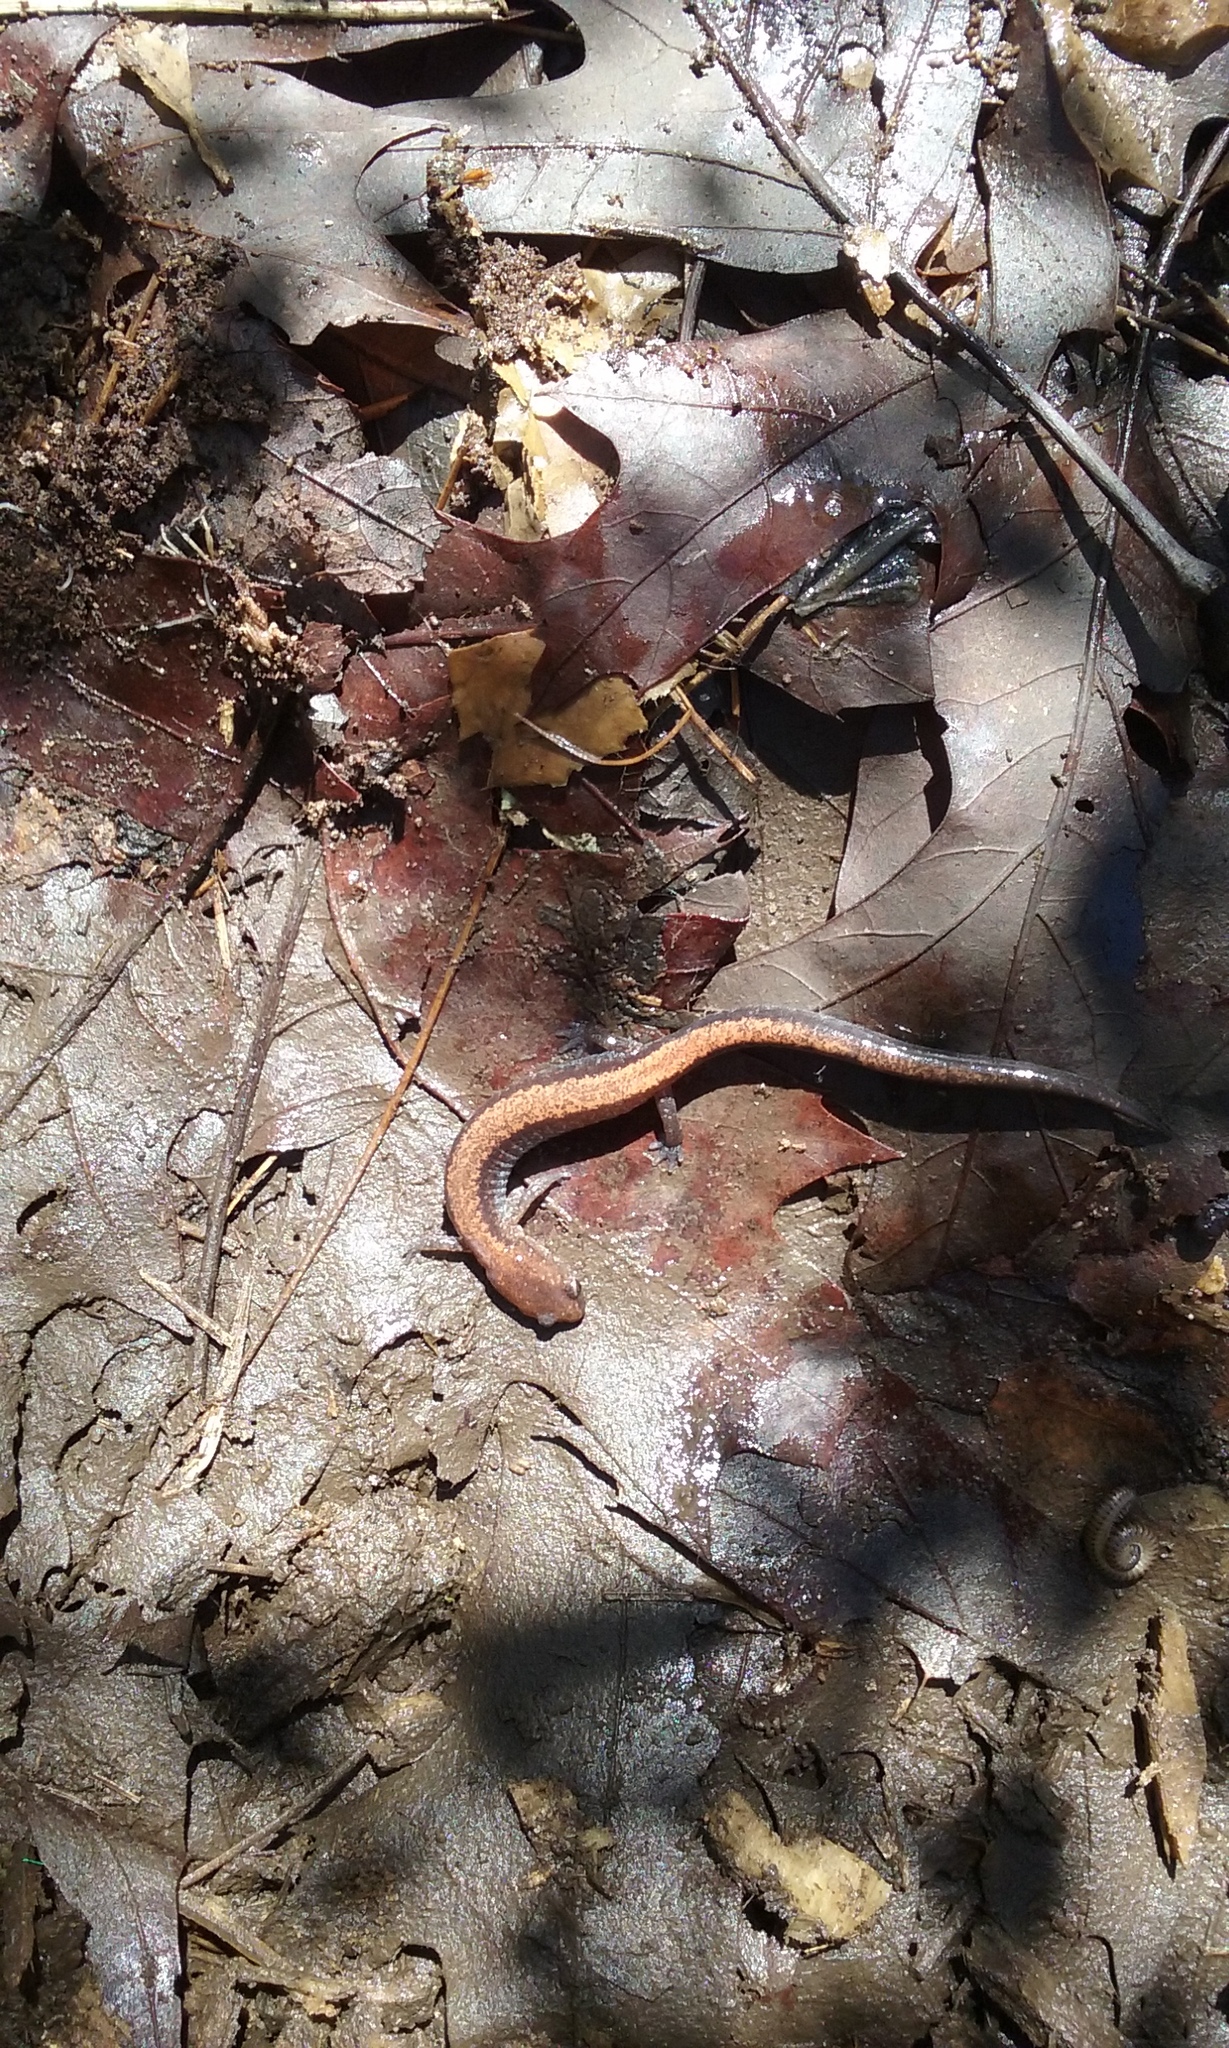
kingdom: Animalia
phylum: Chordata
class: Amphibia
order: Caudata
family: Plethodontidae
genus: Plethodon
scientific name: Plethodon cinereus
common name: Redback salamander
